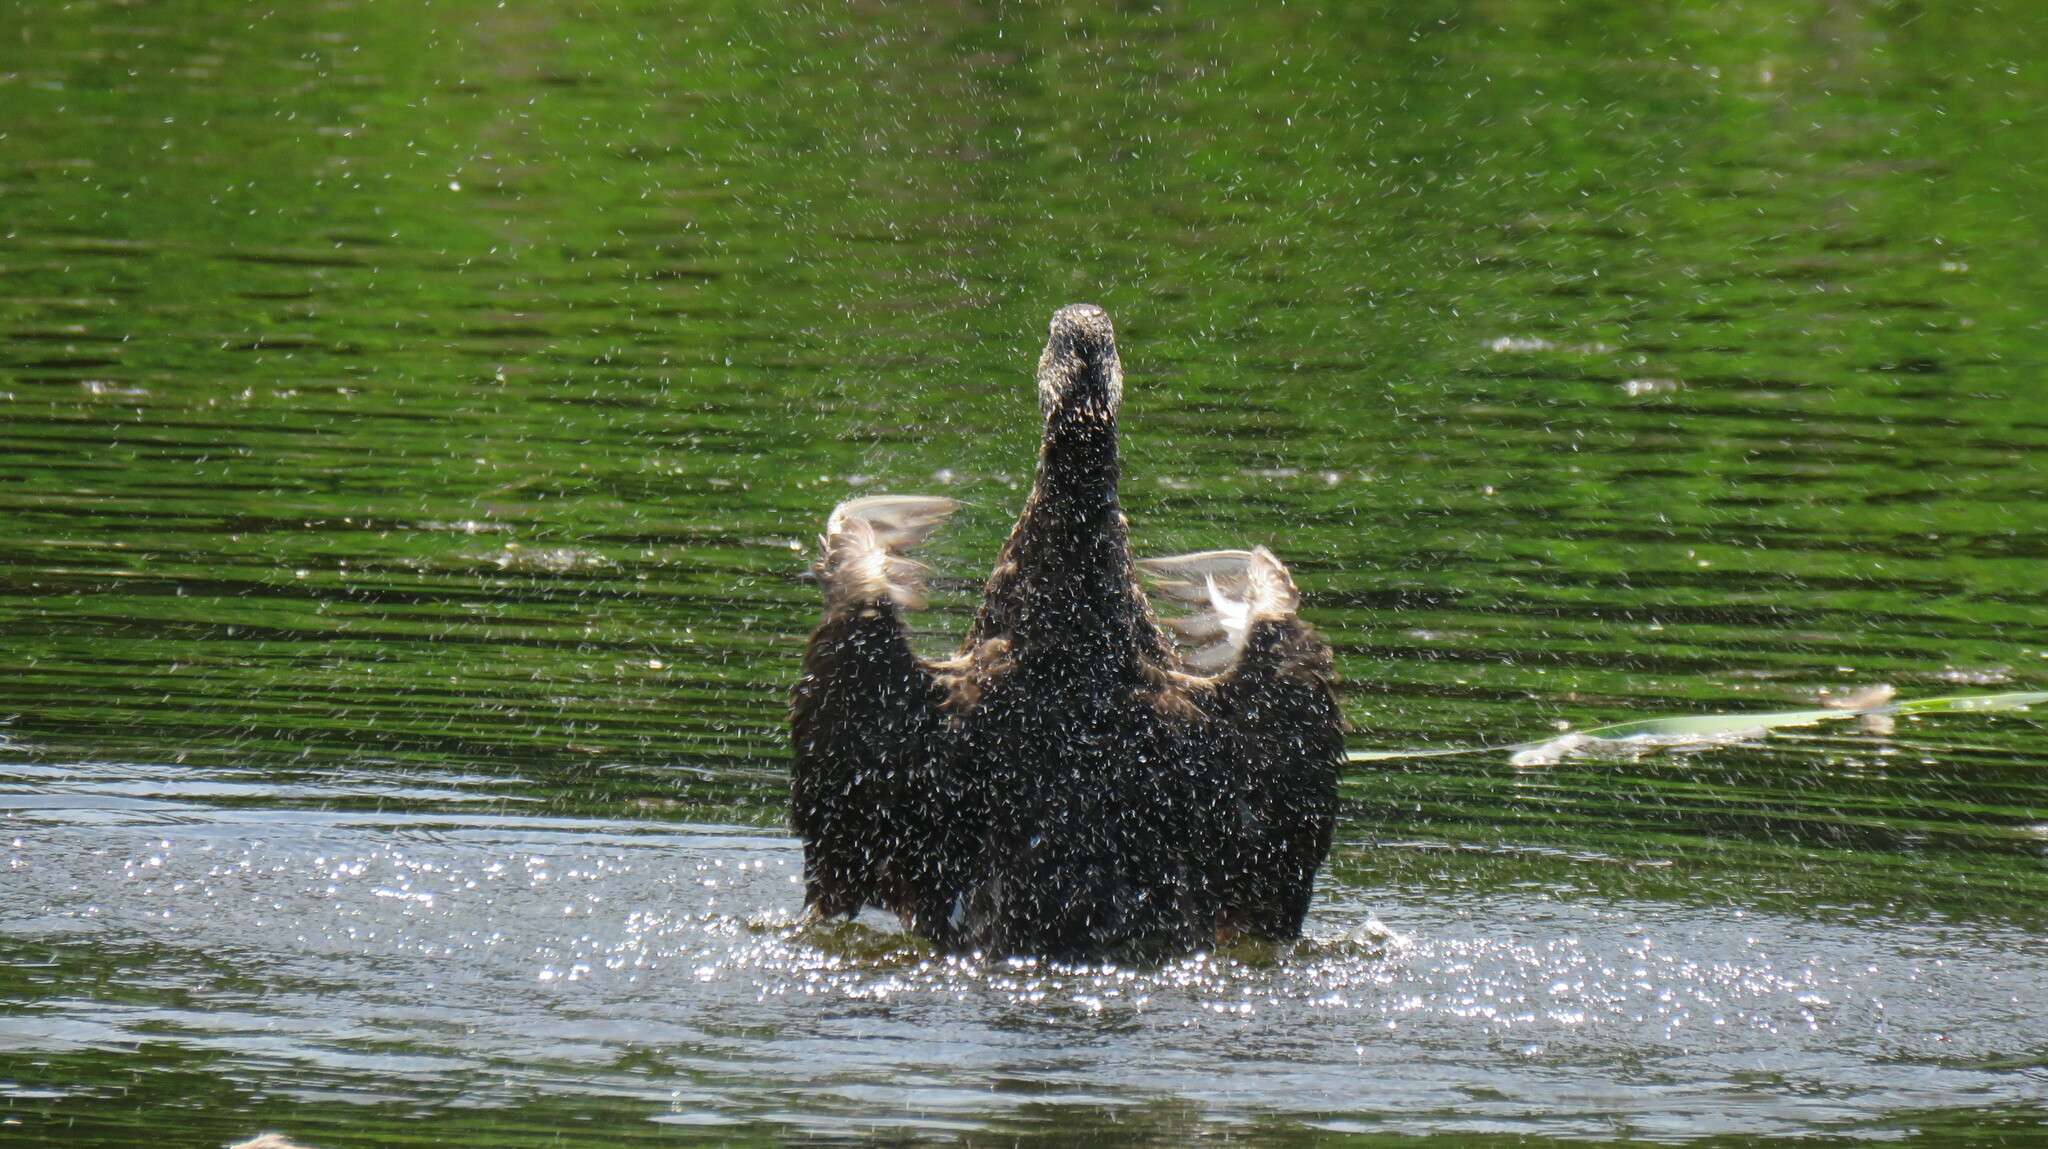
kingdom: Animalia
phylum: Chordata
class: Aves
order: Anseriformes
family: Anatidae
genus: Anas
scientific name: Anas rubripes
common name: American black duck
